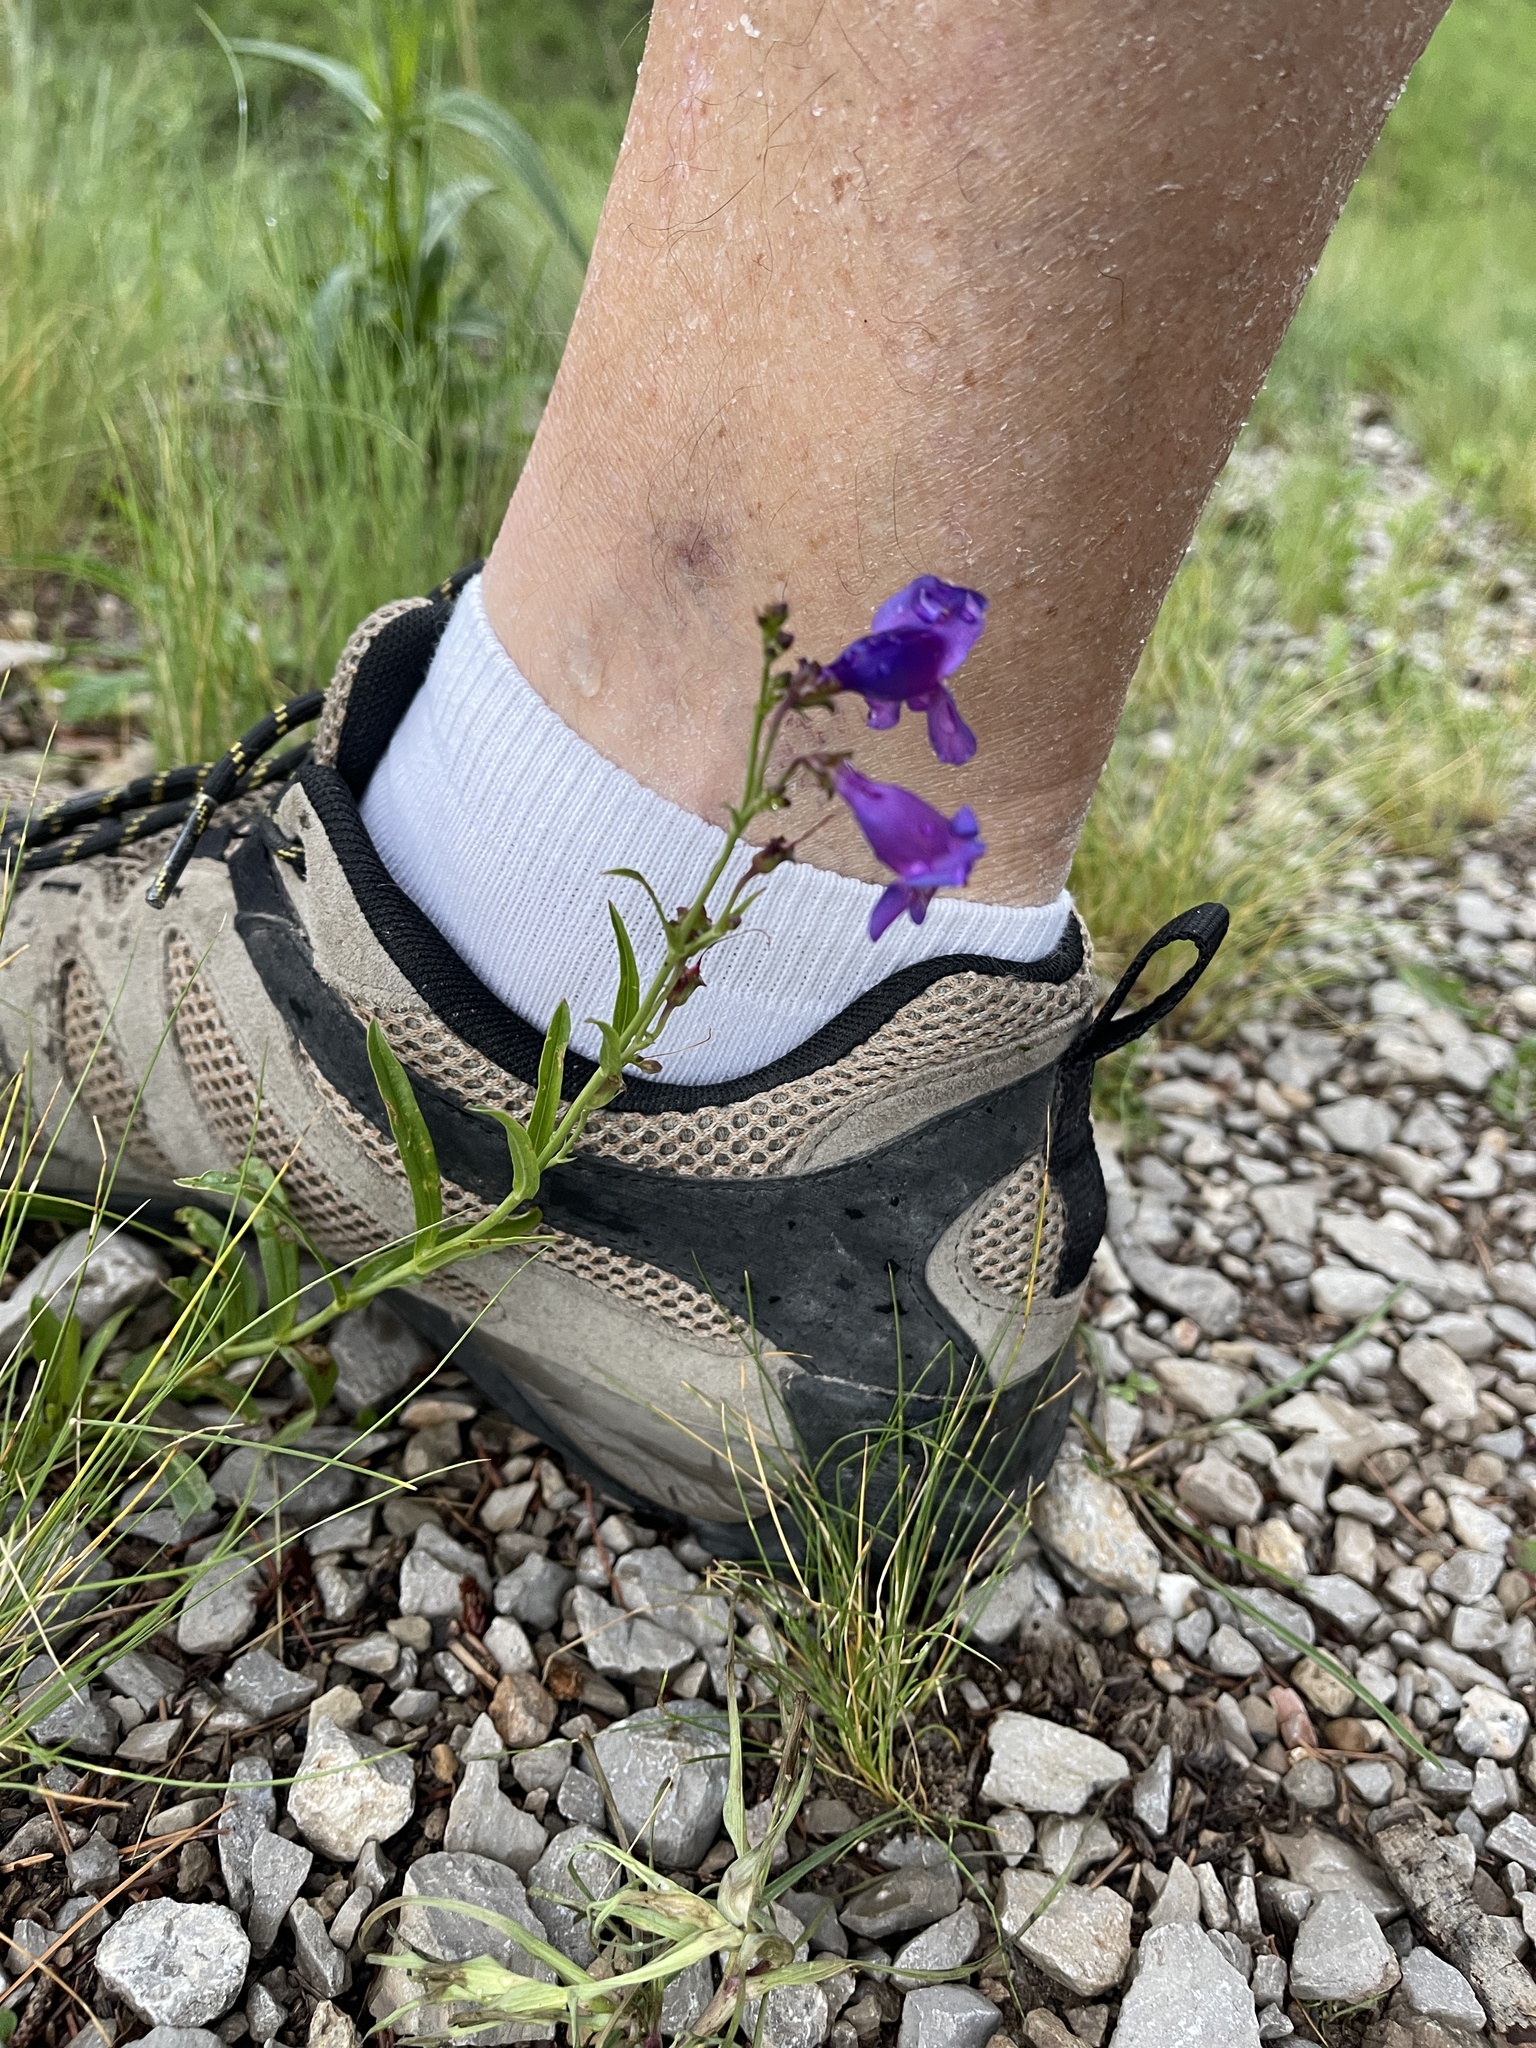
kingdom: Plantae
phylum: Tracheophyta
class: Magnoliopsida
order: Lamiales
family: Plantaginaceae
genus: Penstemon
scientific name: Penstemon neomexicanus
